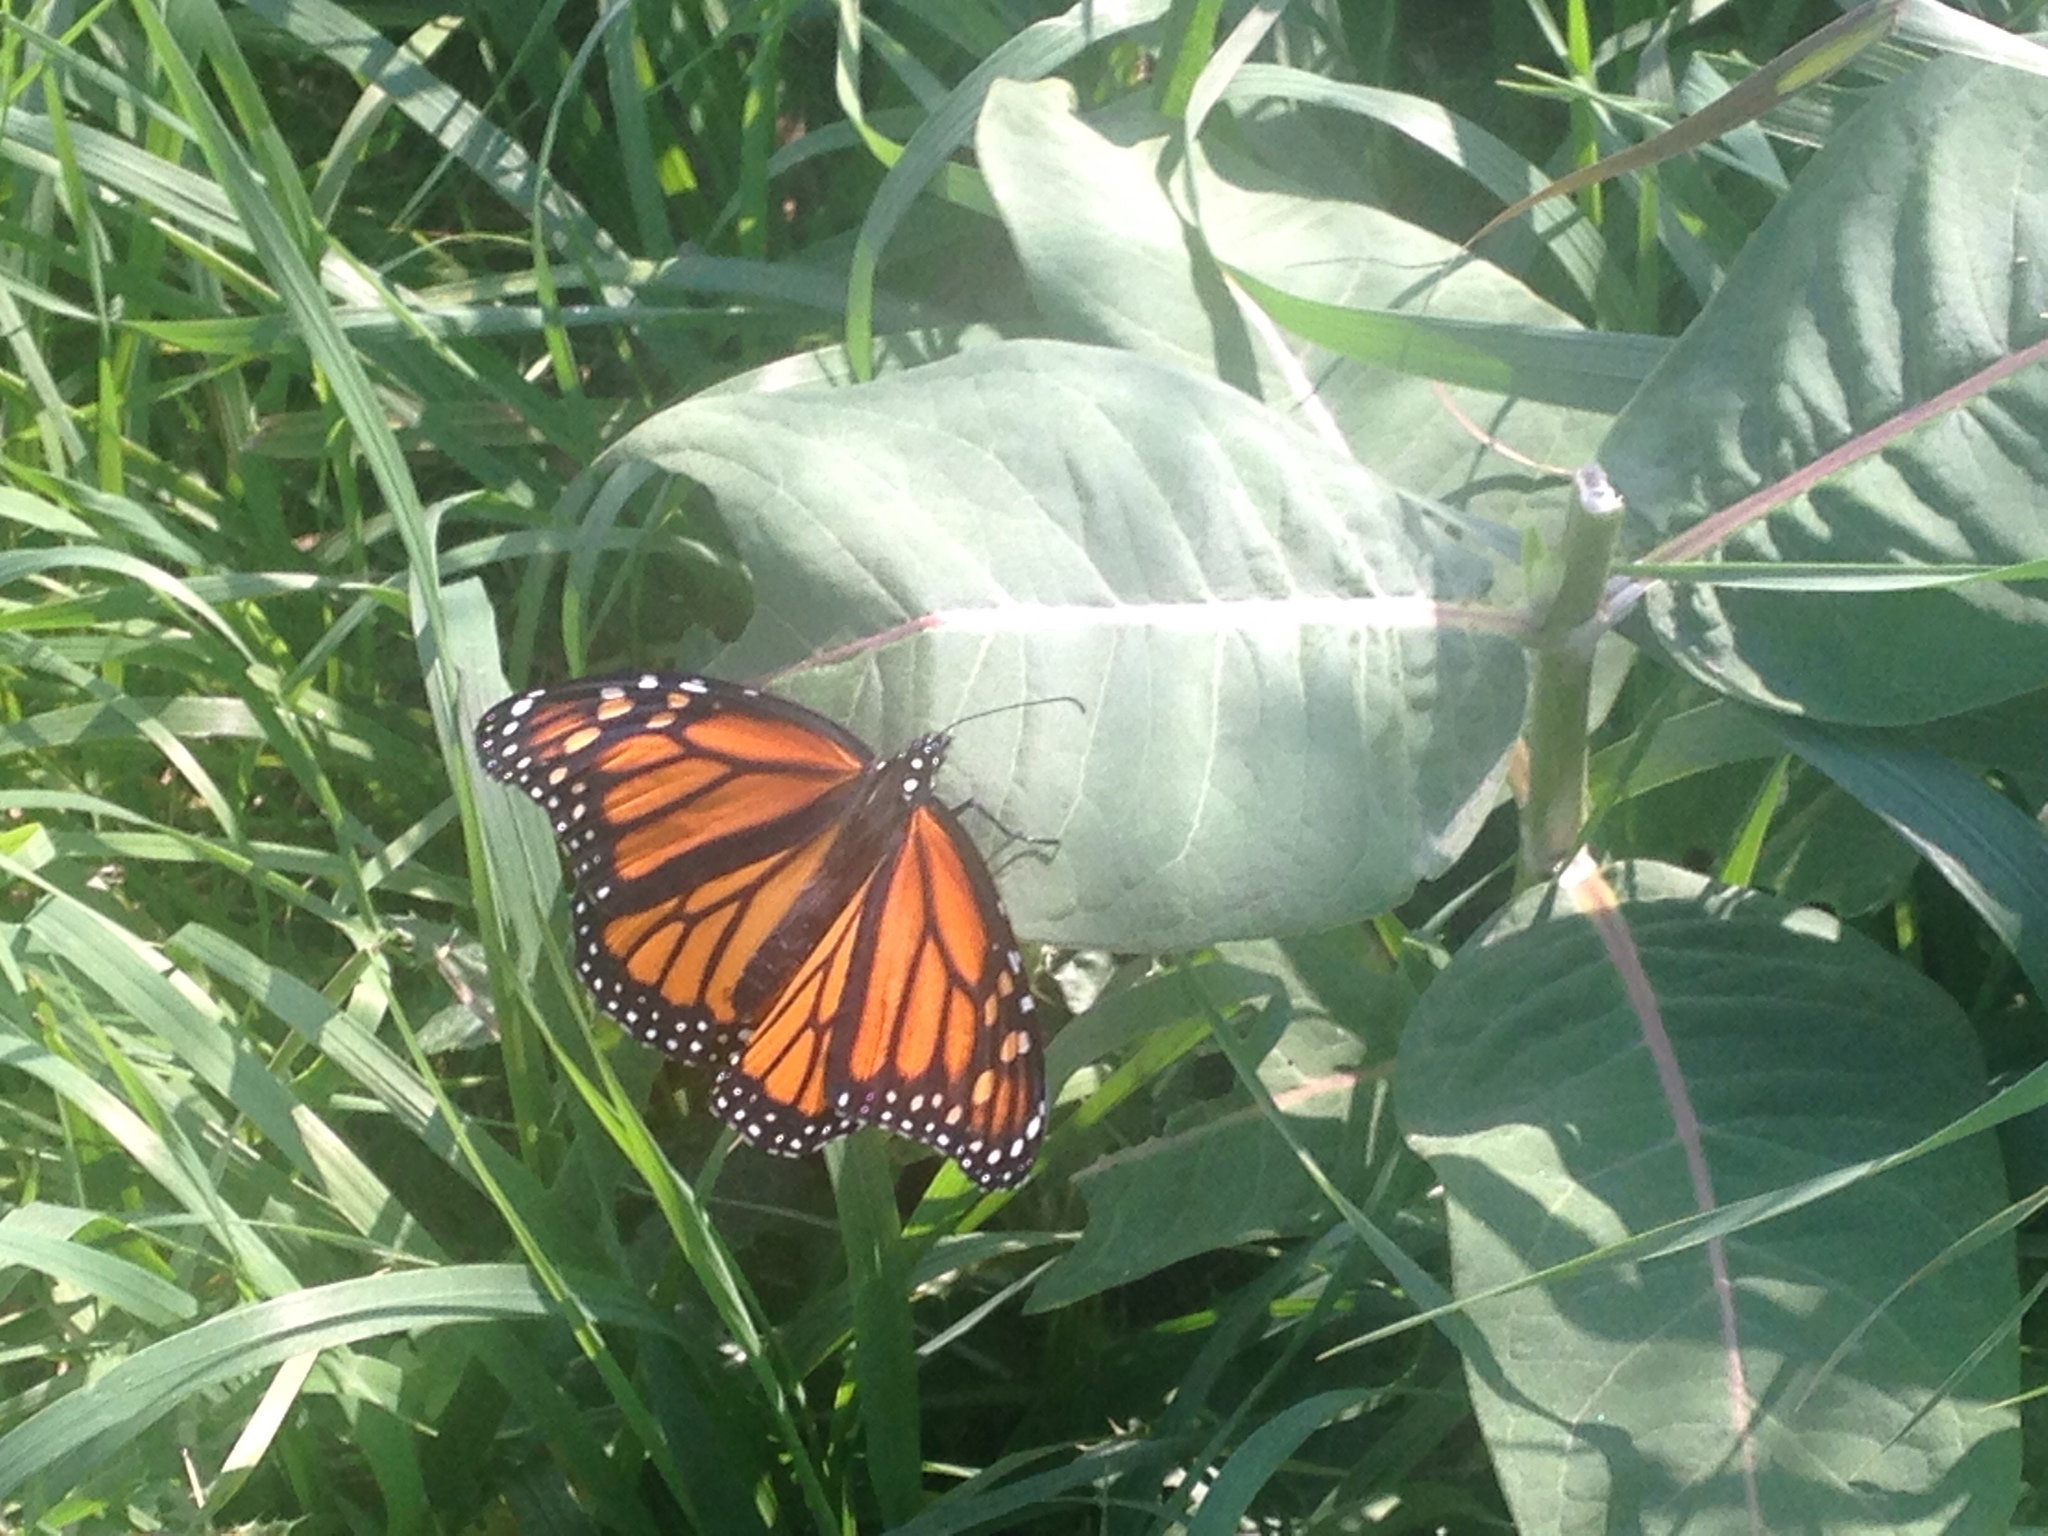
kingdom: Animalia
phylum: Arthropoda
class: Insecta
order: Lepidoptera
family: Nymphalidae
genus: Danaus
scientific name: Danaus plexippus
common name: Monarch
